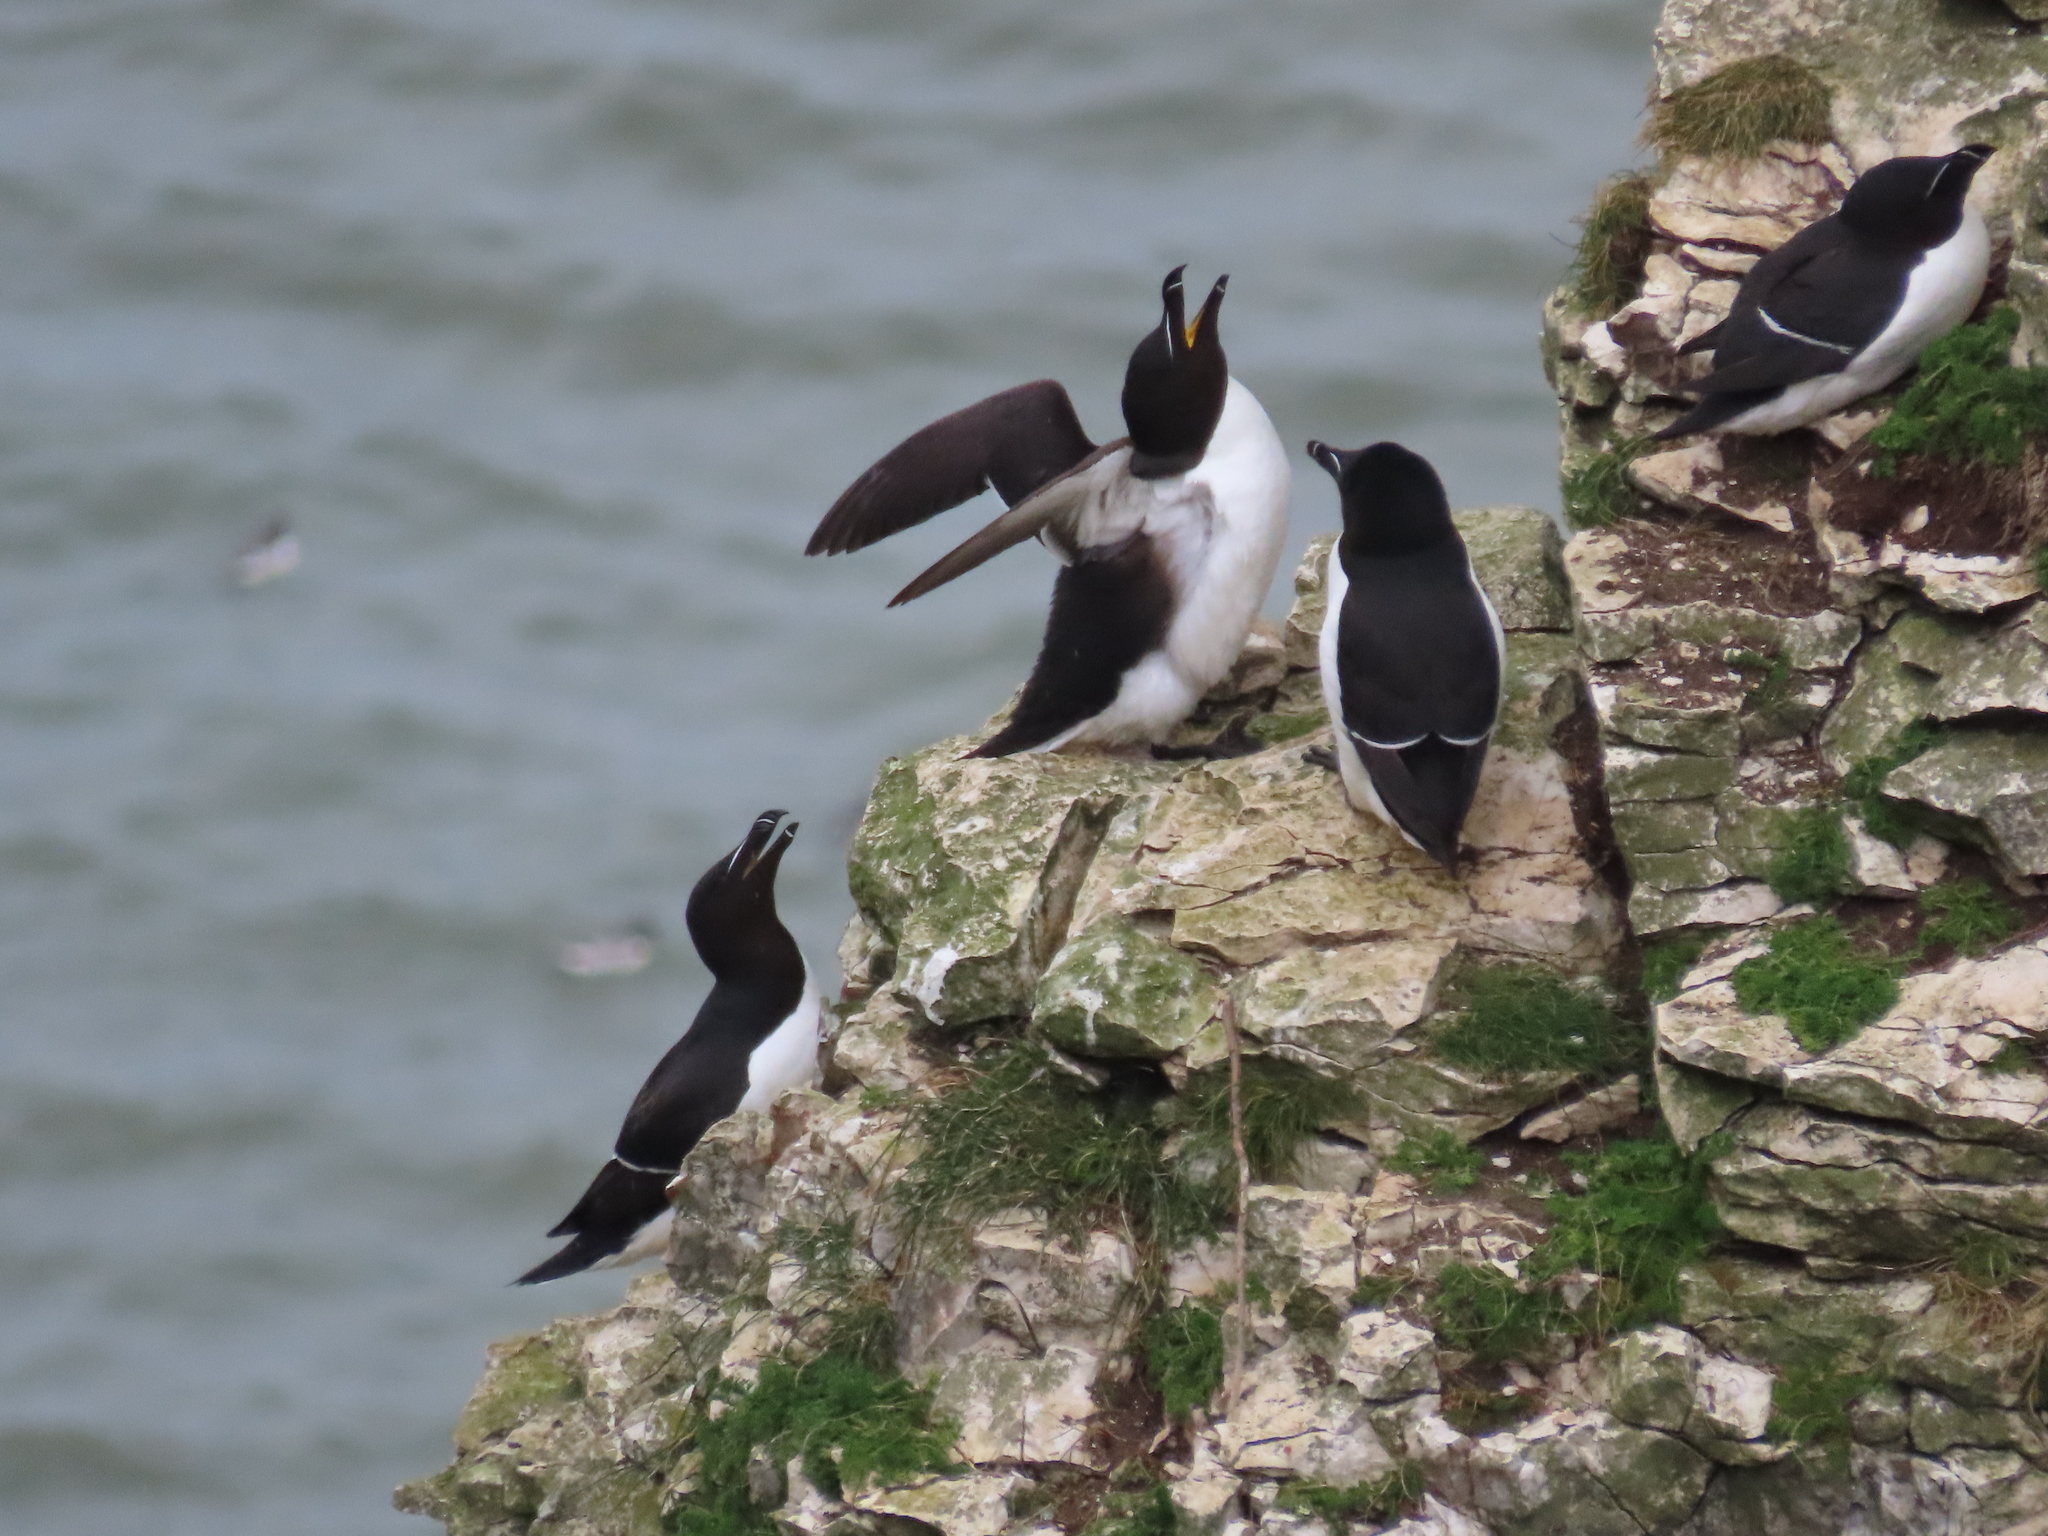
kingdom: Animalia
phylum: Chordata
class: Aves
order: Charadriiformes
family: Alcidae
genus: Alca
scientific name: Alca torda
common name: Razorbill
